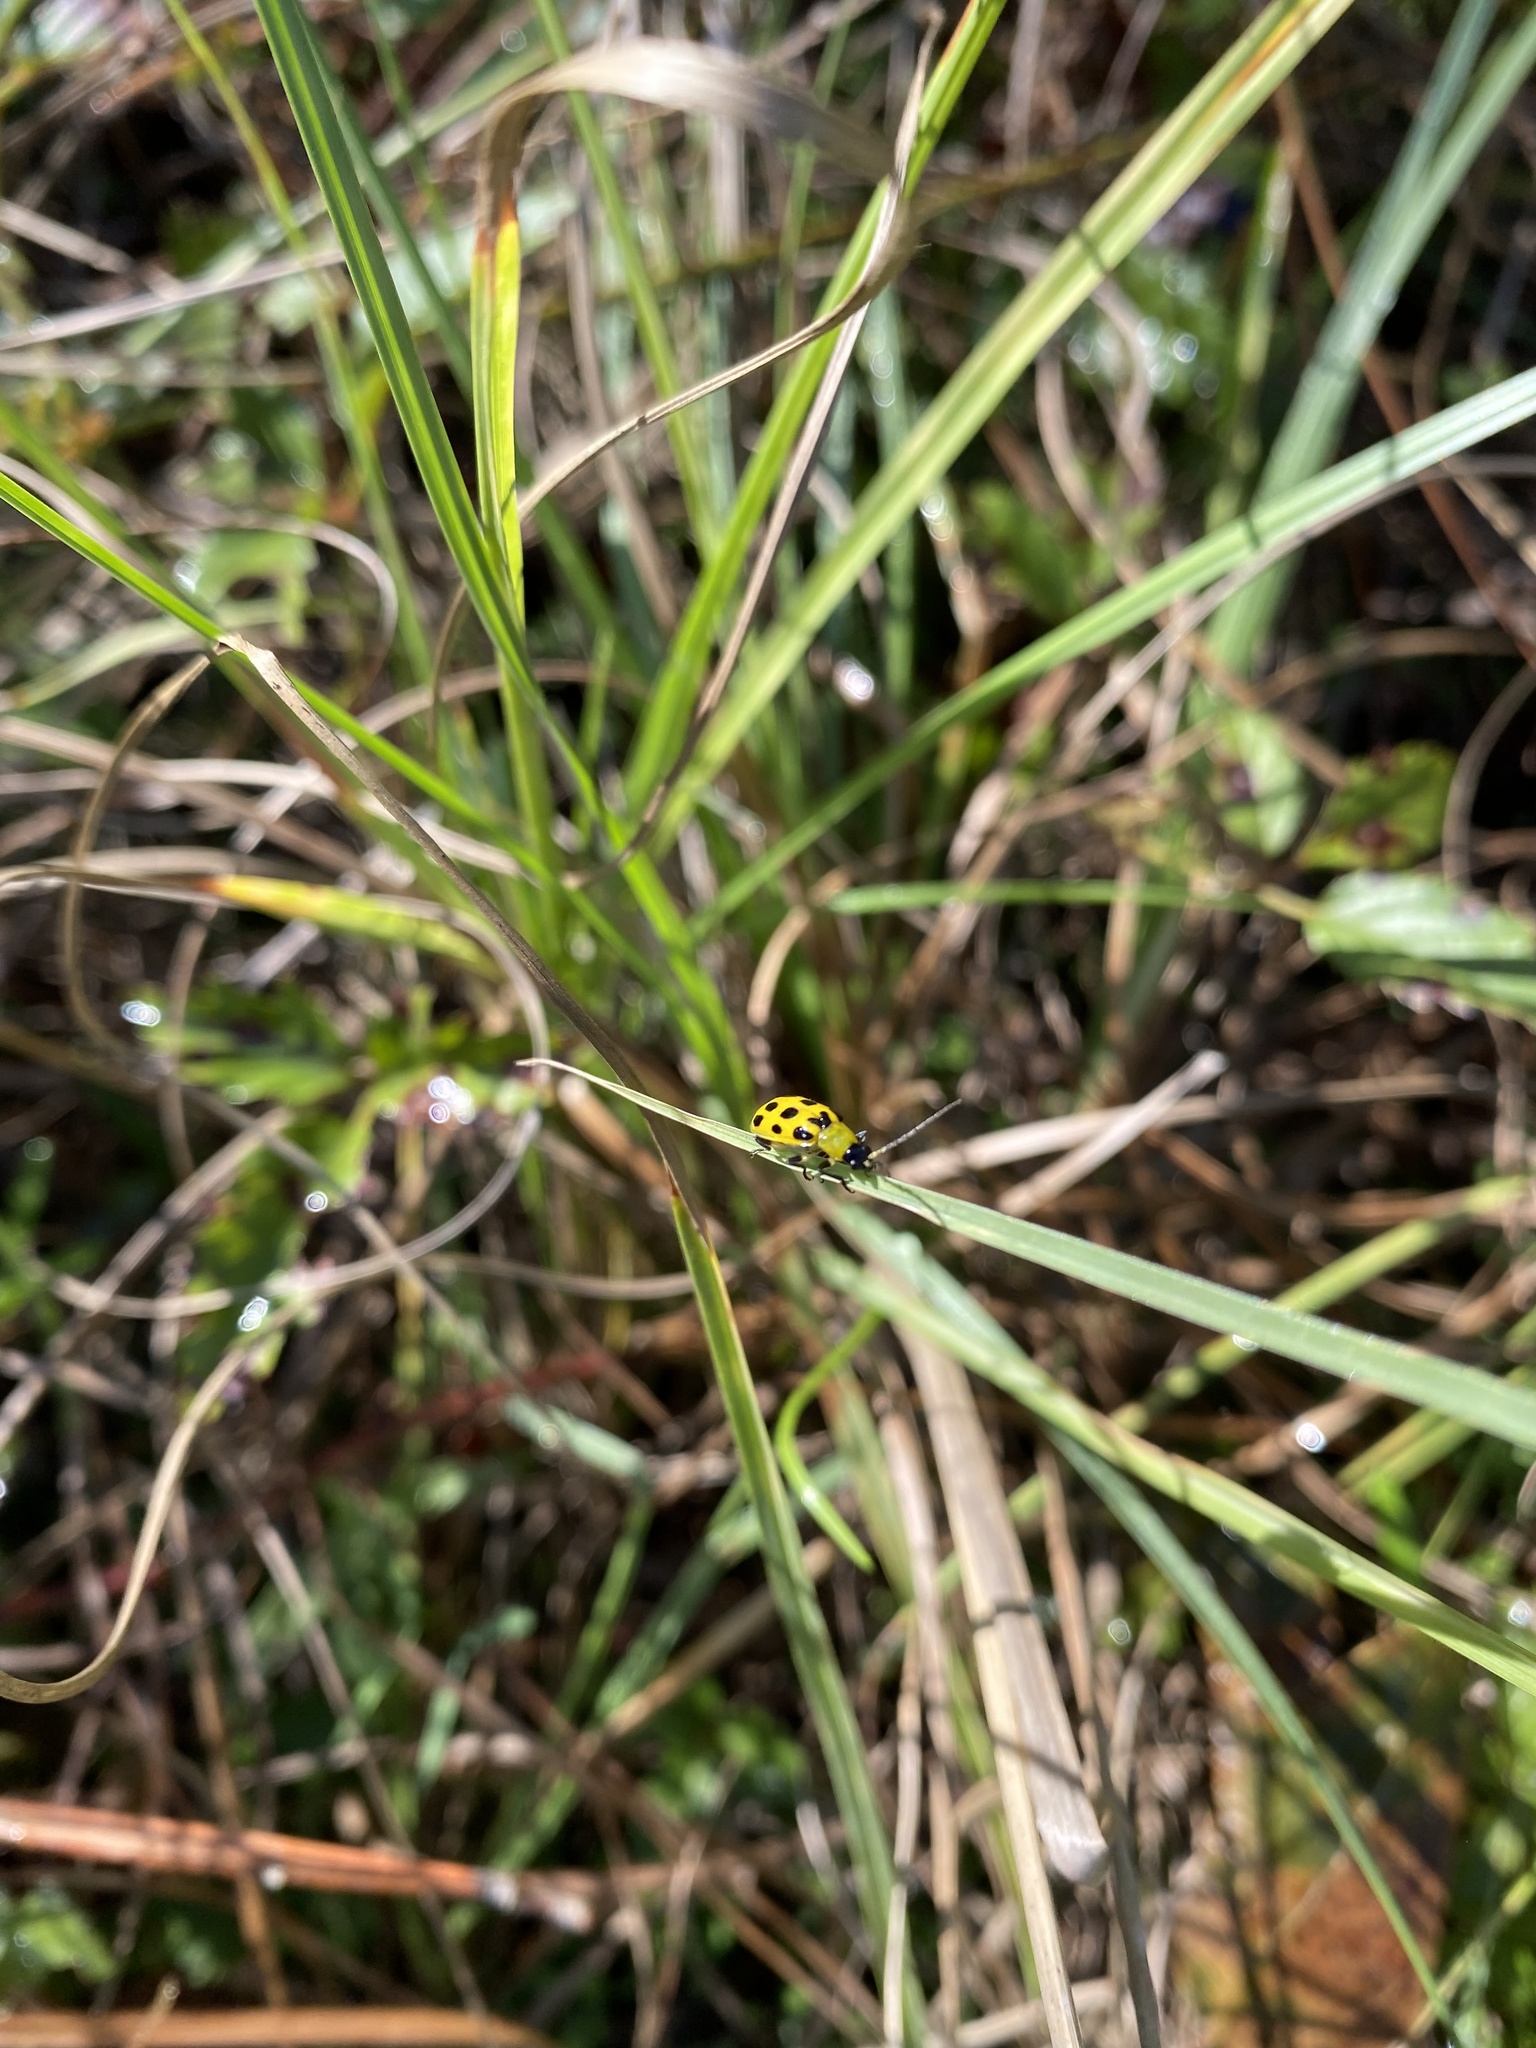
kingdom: Animalia
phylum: Arthropoda
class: Insecta
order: Coleoptera
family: Chrysomelidae
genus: Diabrotica
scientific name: Diabrotica undecimpunctata
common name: Spotted cucumber beetle
